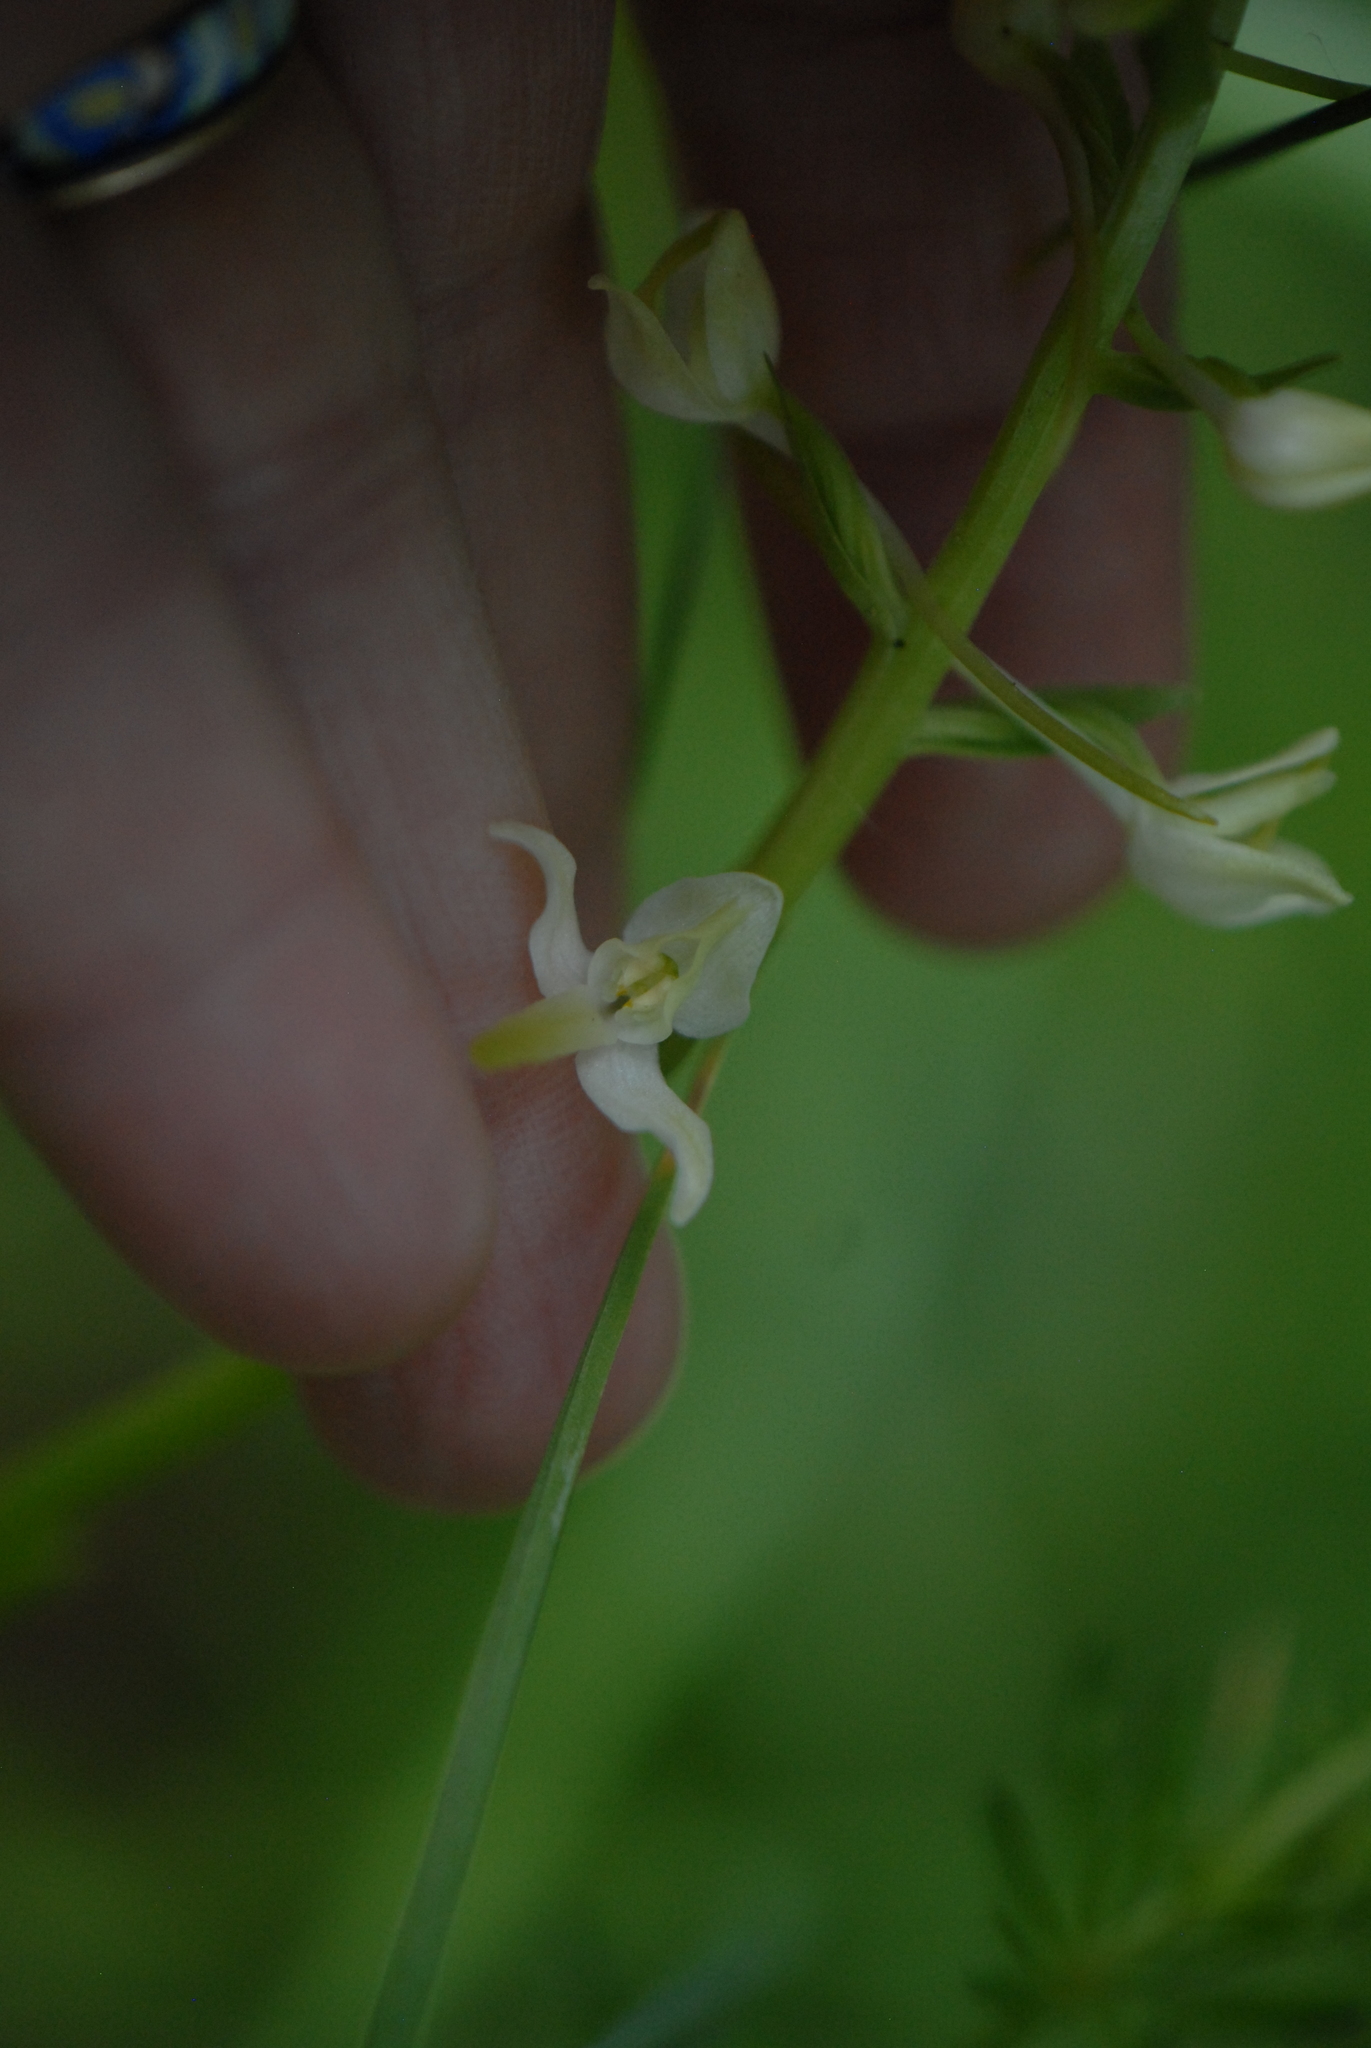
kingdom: Plantae
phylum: Tracheophyta
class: Liliopsida
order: Asparagales
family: Orchidaceae
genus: Platanthera
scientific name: Platanthera bifolia
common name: Lesser butterfly-orchid
